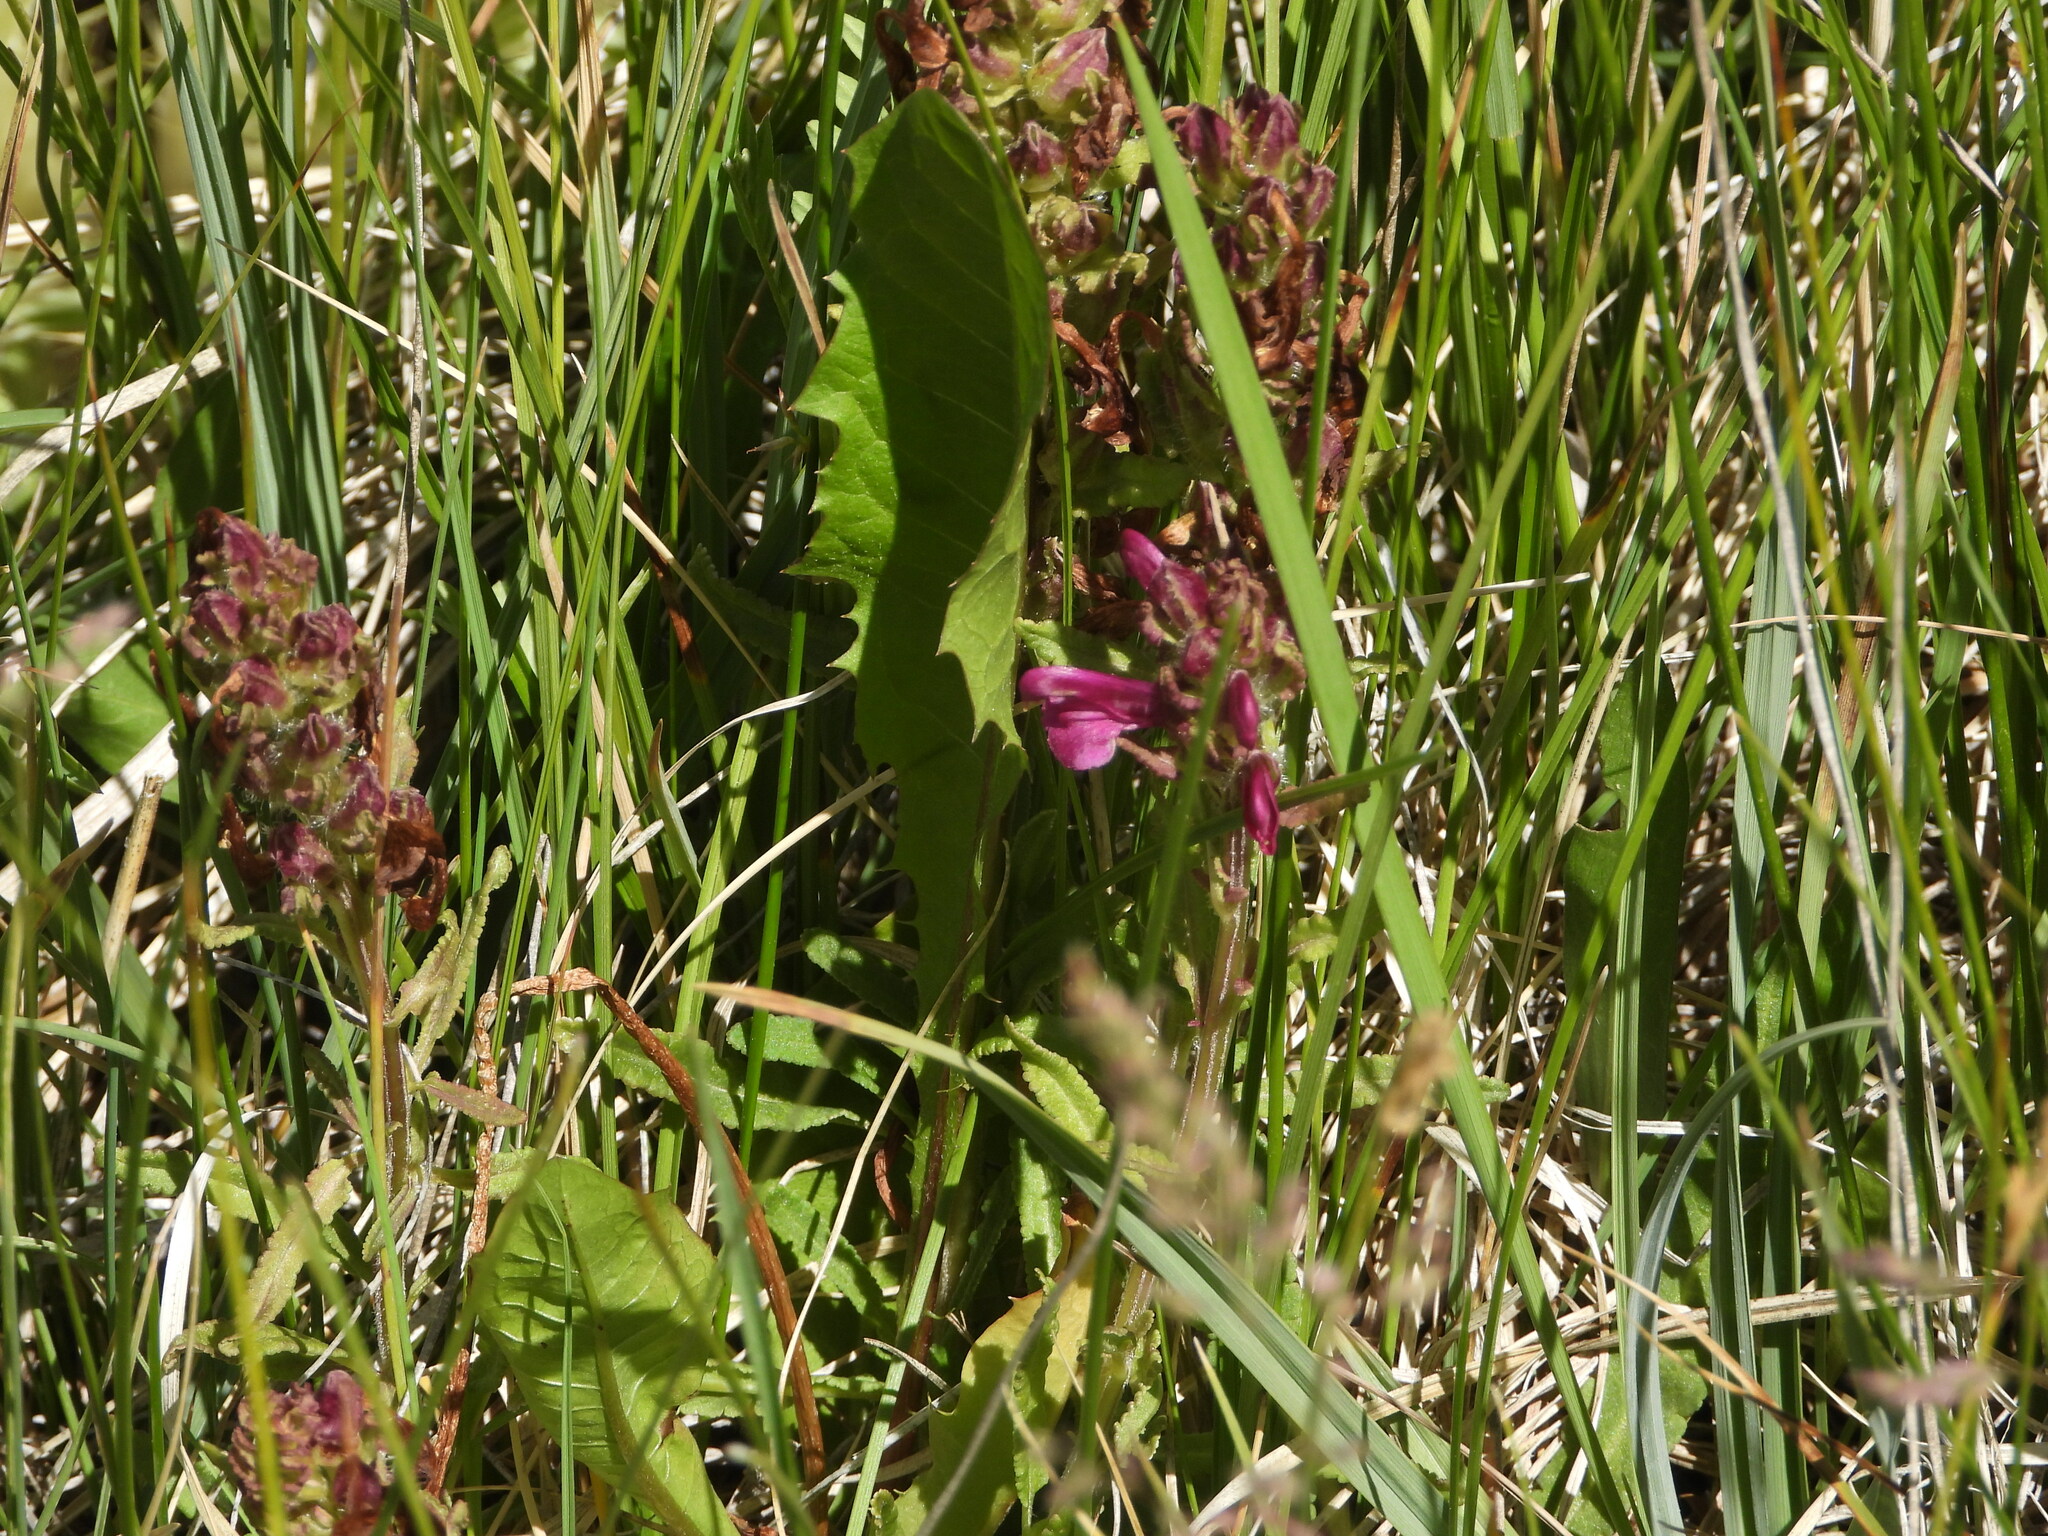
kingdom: Plantae
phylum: Tracheophyta
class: Magnoliopsida
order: Lamiales
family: Orobanchaceae
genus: Pedicularis
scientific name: Pedicularis crenulata
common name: Meadow lousewort
